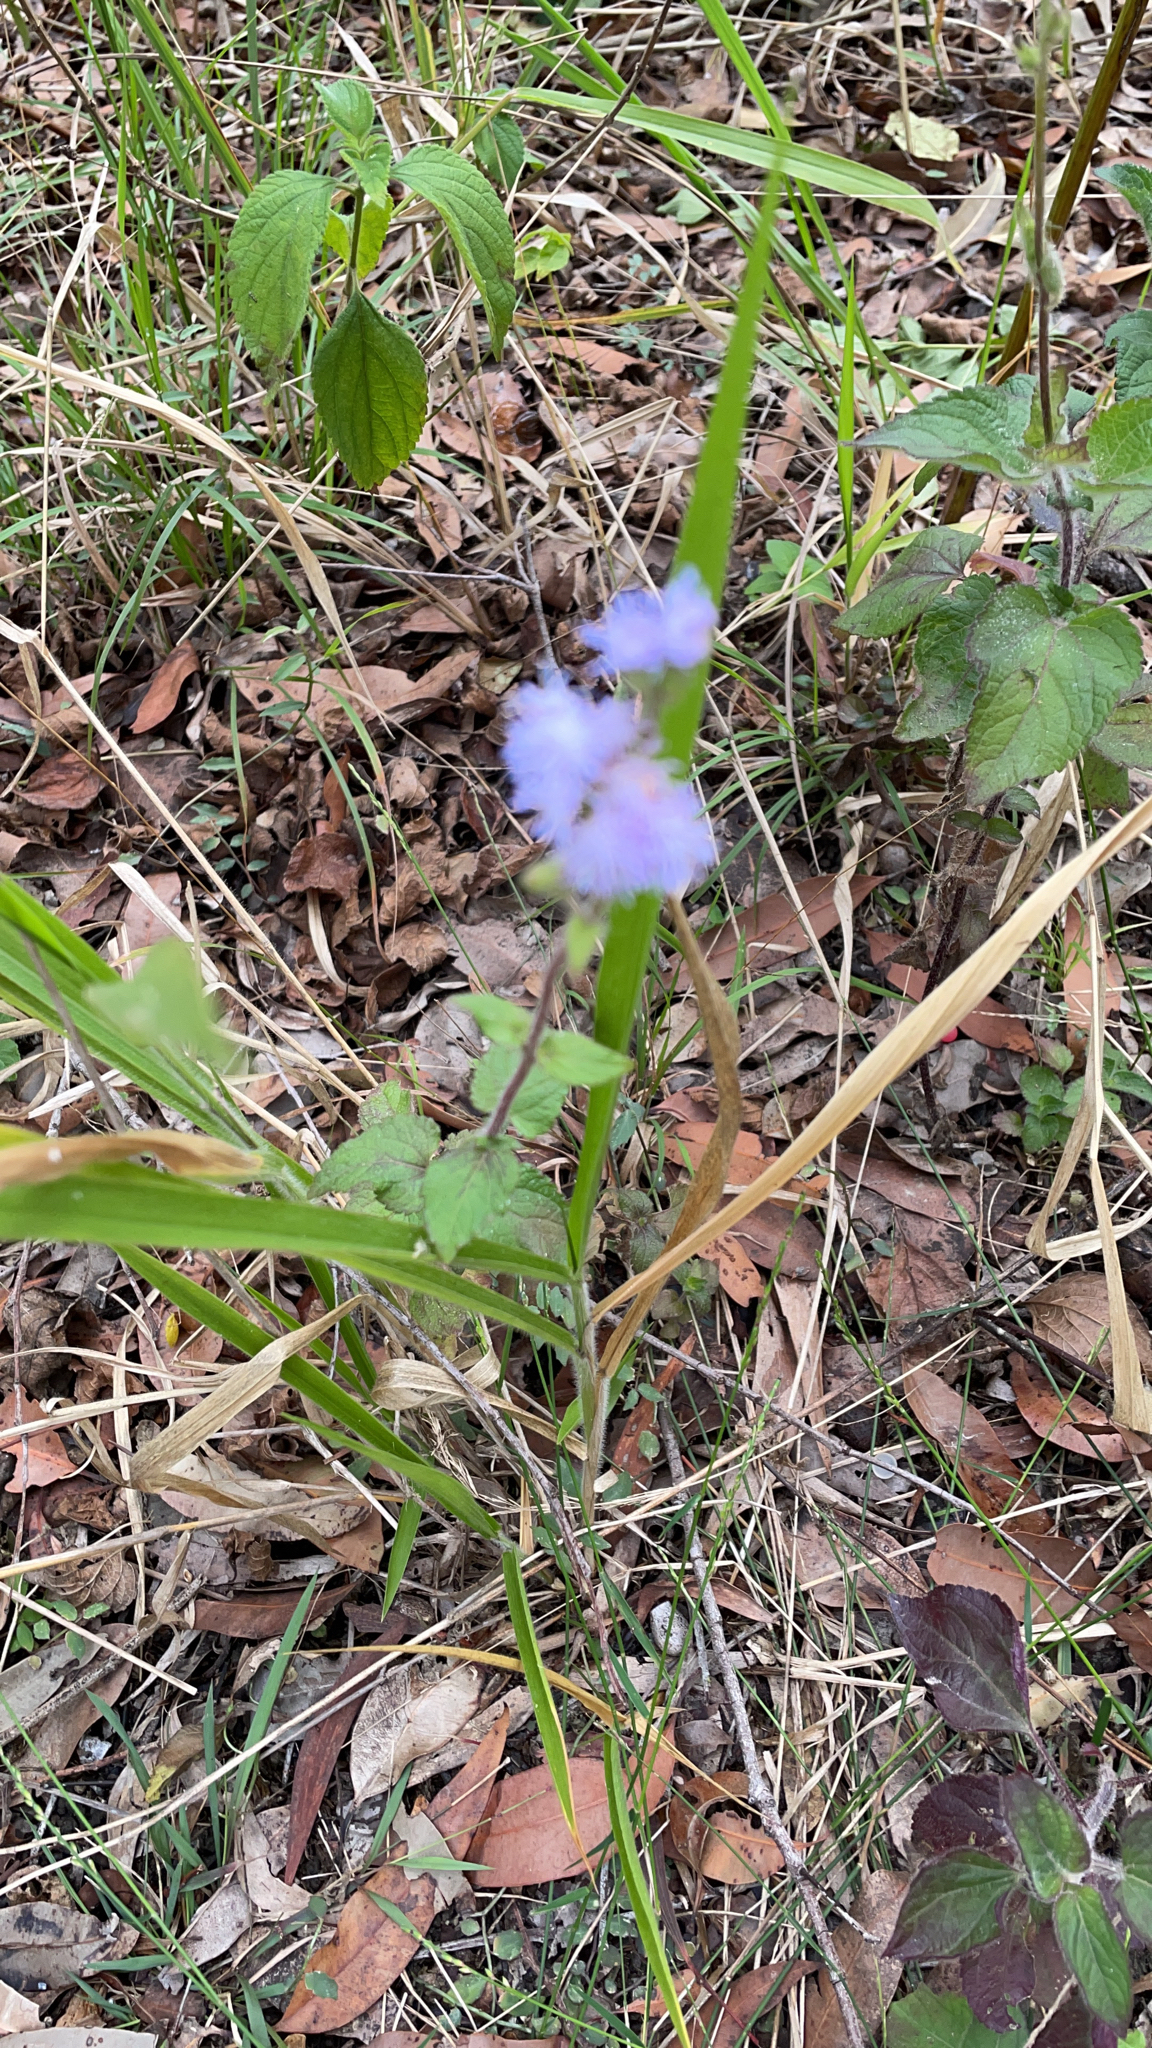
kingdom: Plantae
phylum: Tracheophyta
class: Magnoliopsida
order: Asterales
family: Asteraceae
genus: Ageratum
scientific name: Ageratum houstonianum
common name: Bluemink
